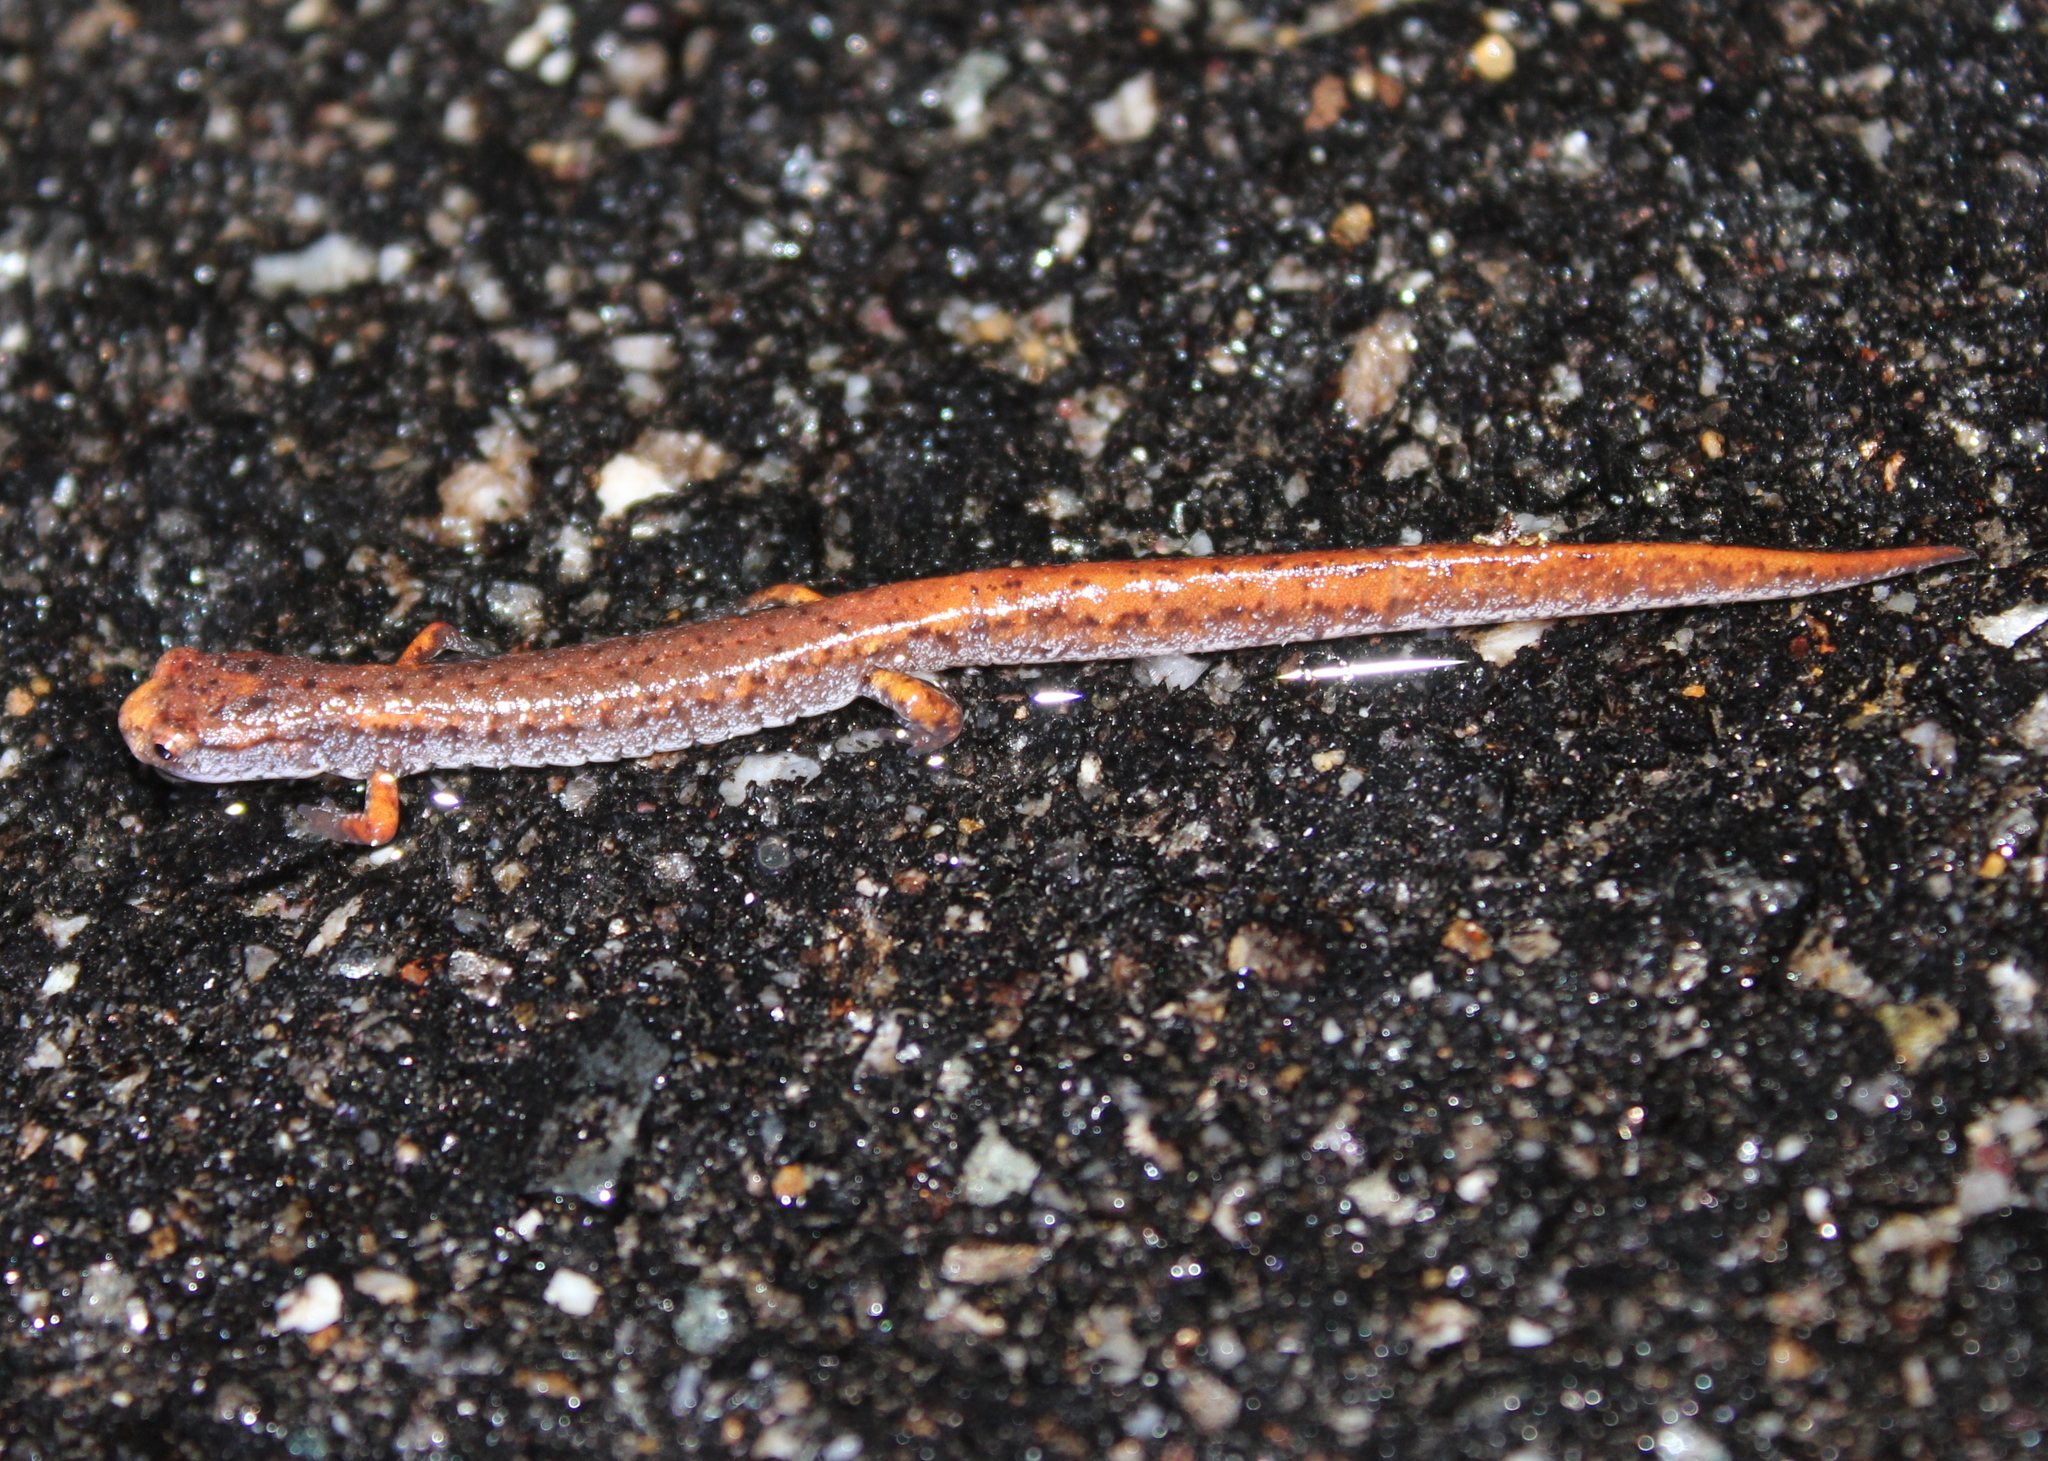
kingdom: Animalia
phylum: Chordata
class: Amphibia
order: Caudata
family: Plethodontidae
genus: Hemidactylium
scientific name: Hemidactylium scutatum
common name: Four-toed salamander
